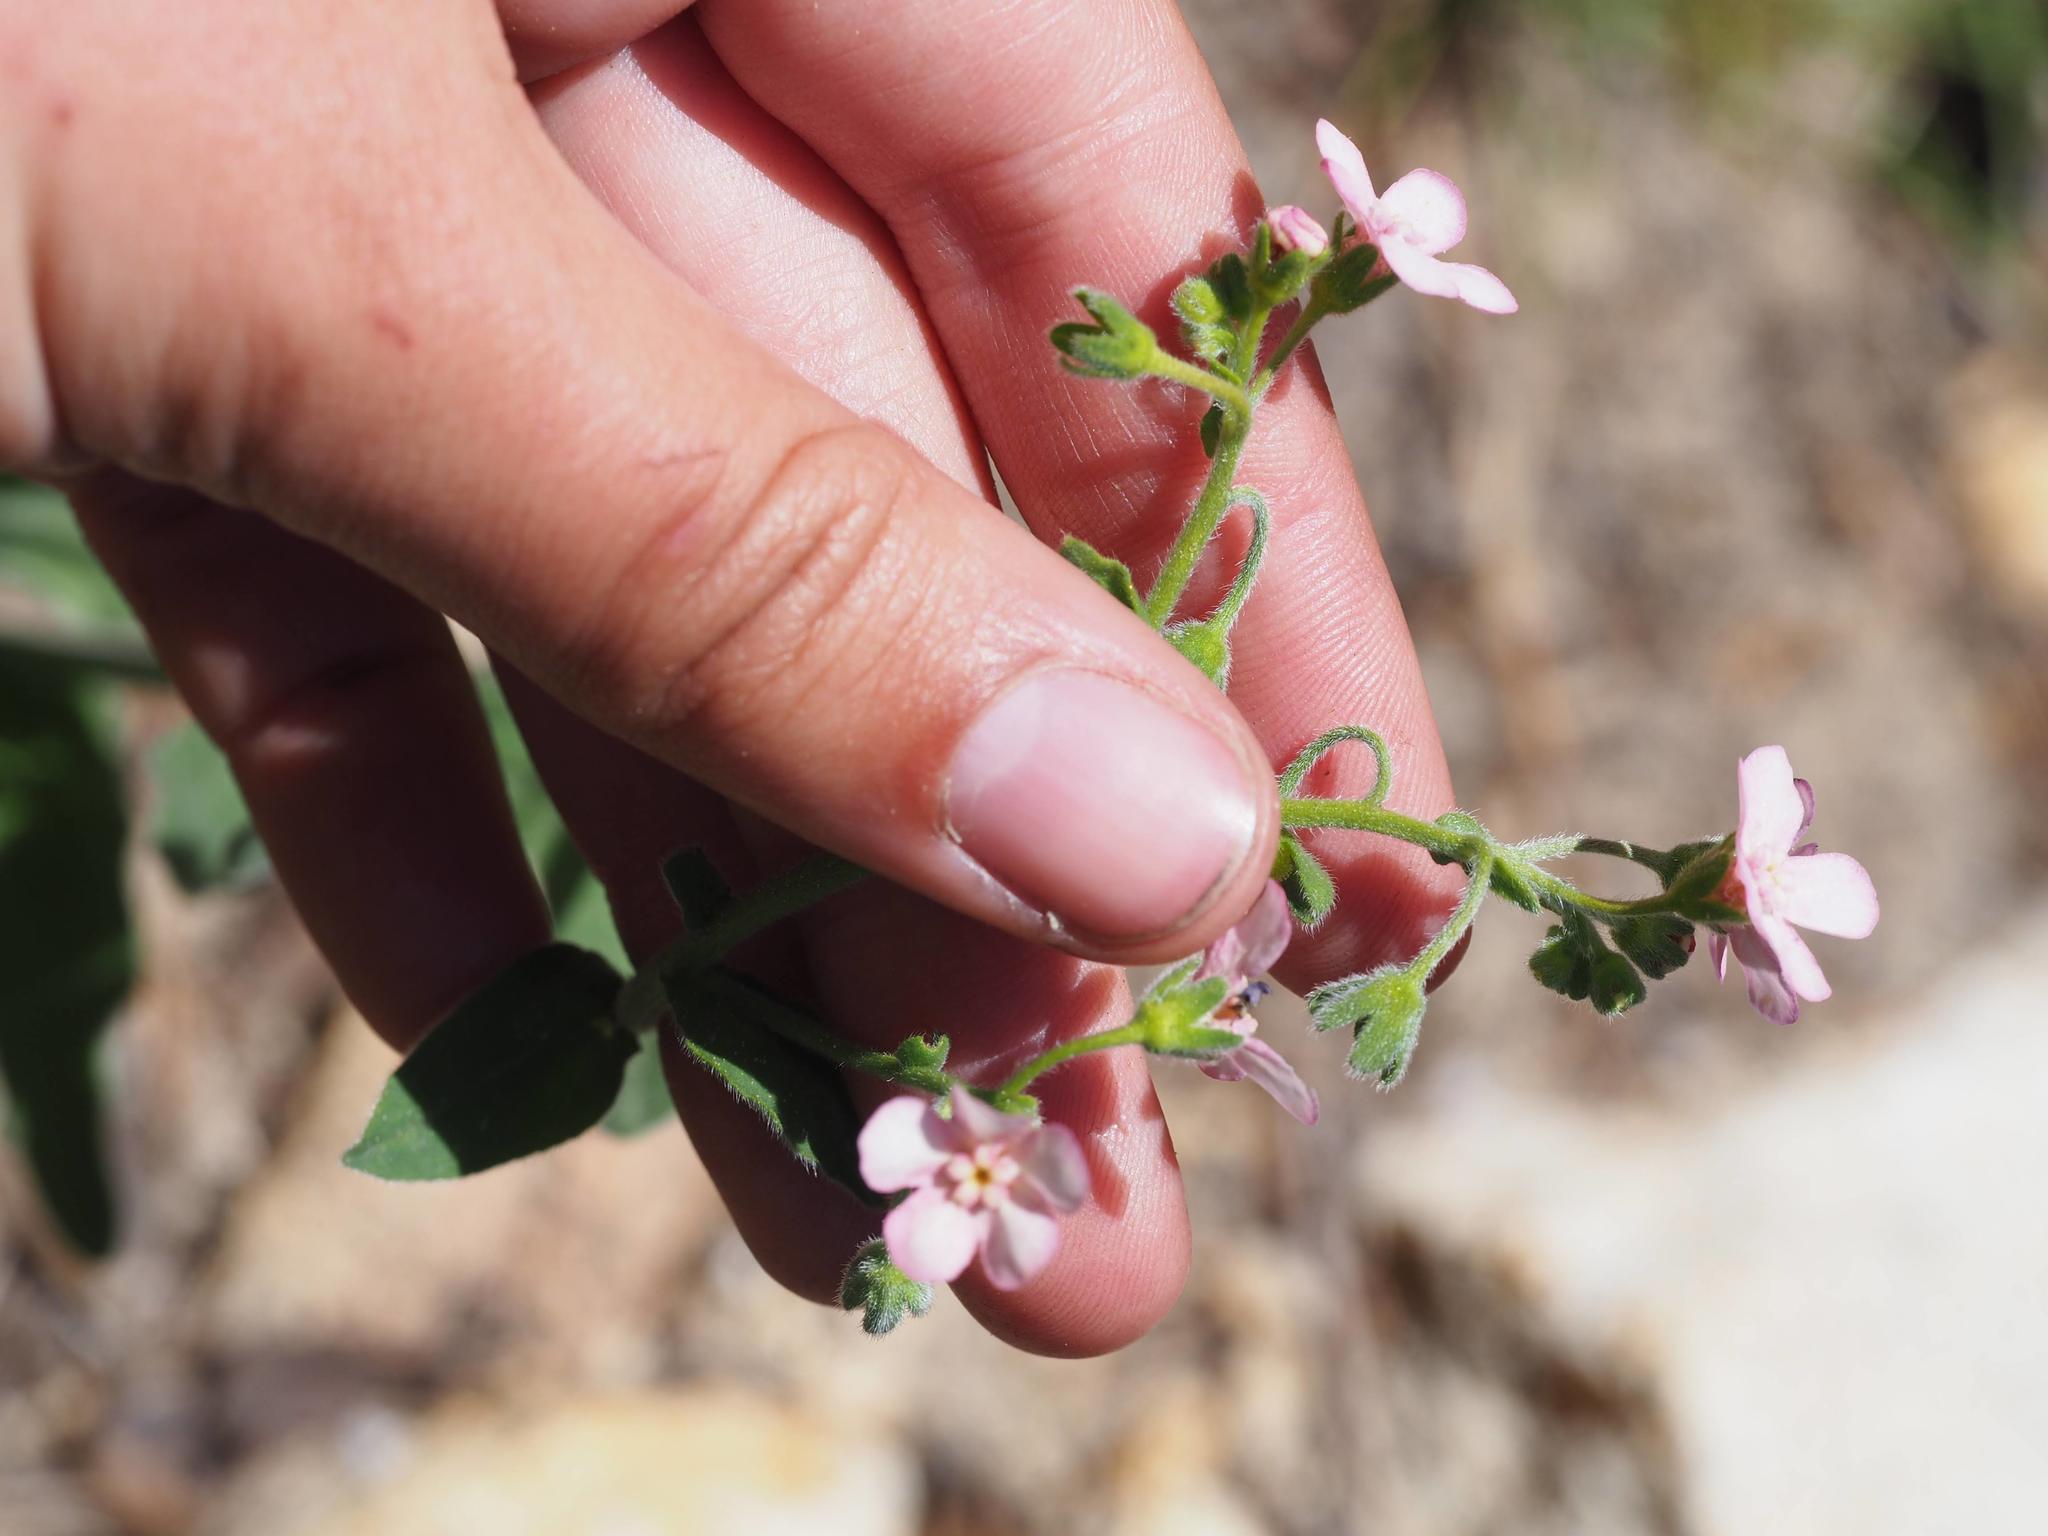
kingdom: Plantae
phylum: Tracheophyta
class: Magnoliopsida
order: Boraginales
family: Boraginaceae
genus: Hackelia
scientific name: Hackelia mundula
